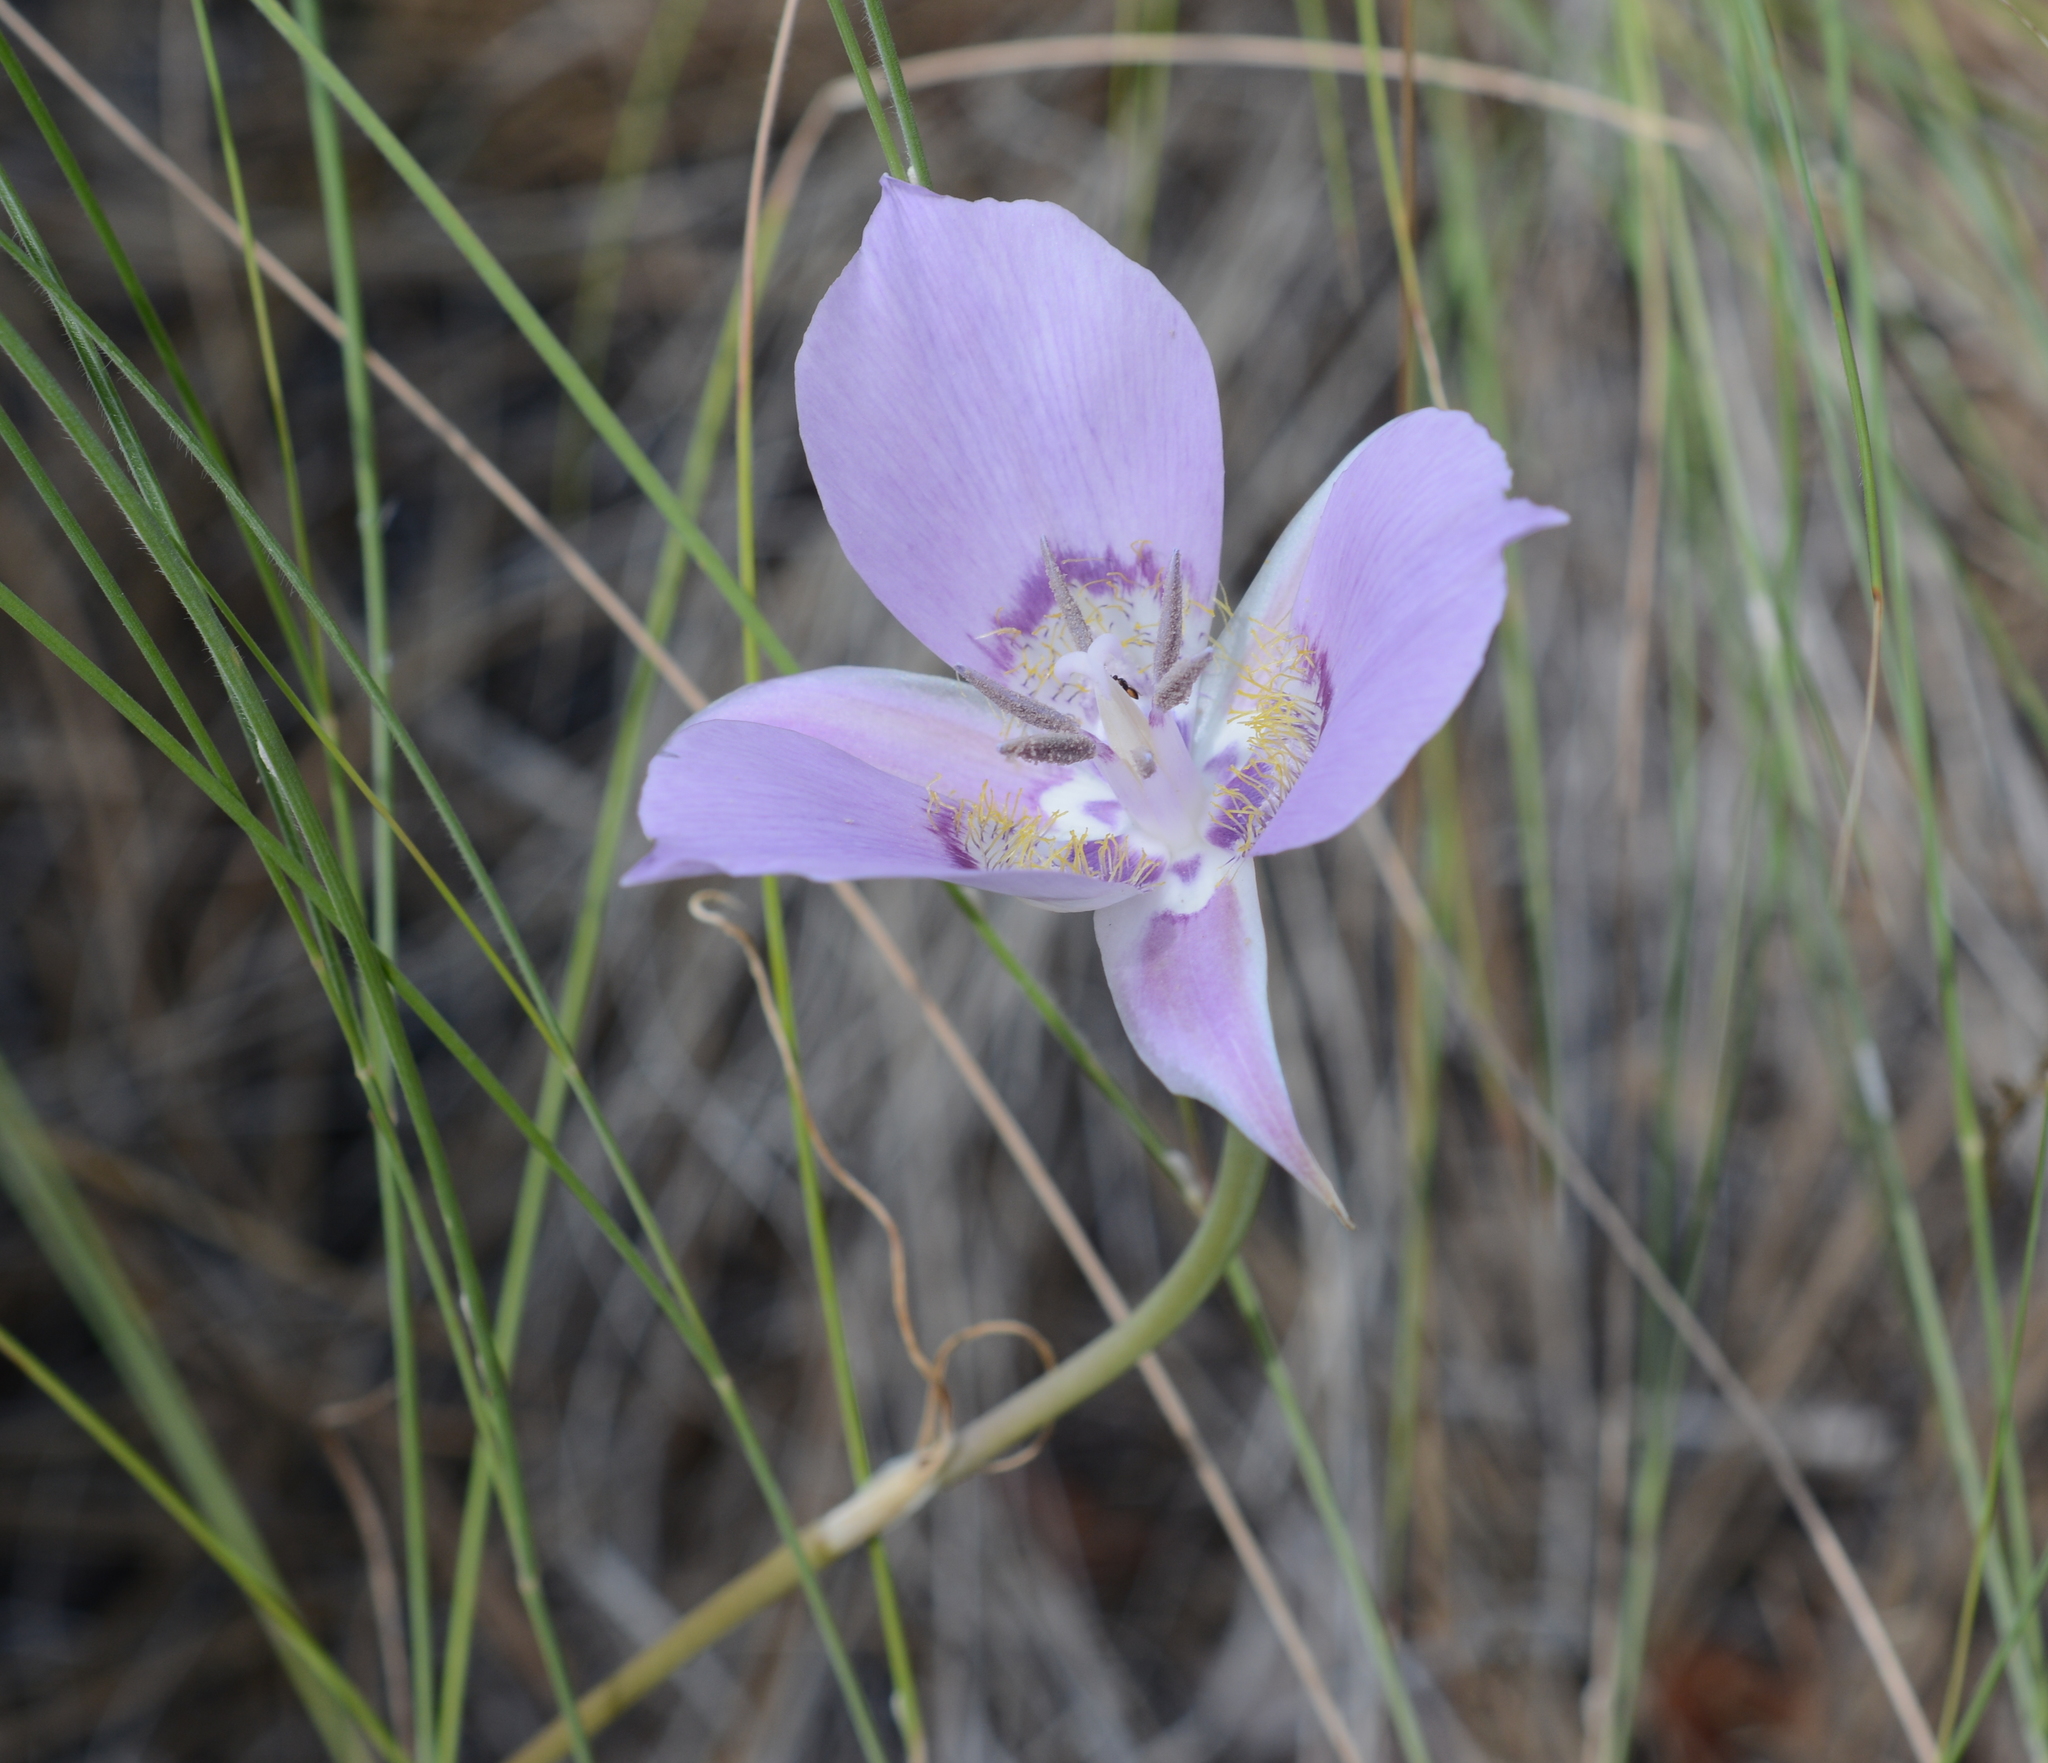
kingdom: Plantae
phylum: Tracheophyta
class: Liliopsida
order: Liliales
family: Liliaceae
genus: Calochortus
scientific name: Calochortus macrocarpus
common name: Green-band mariposa lily
